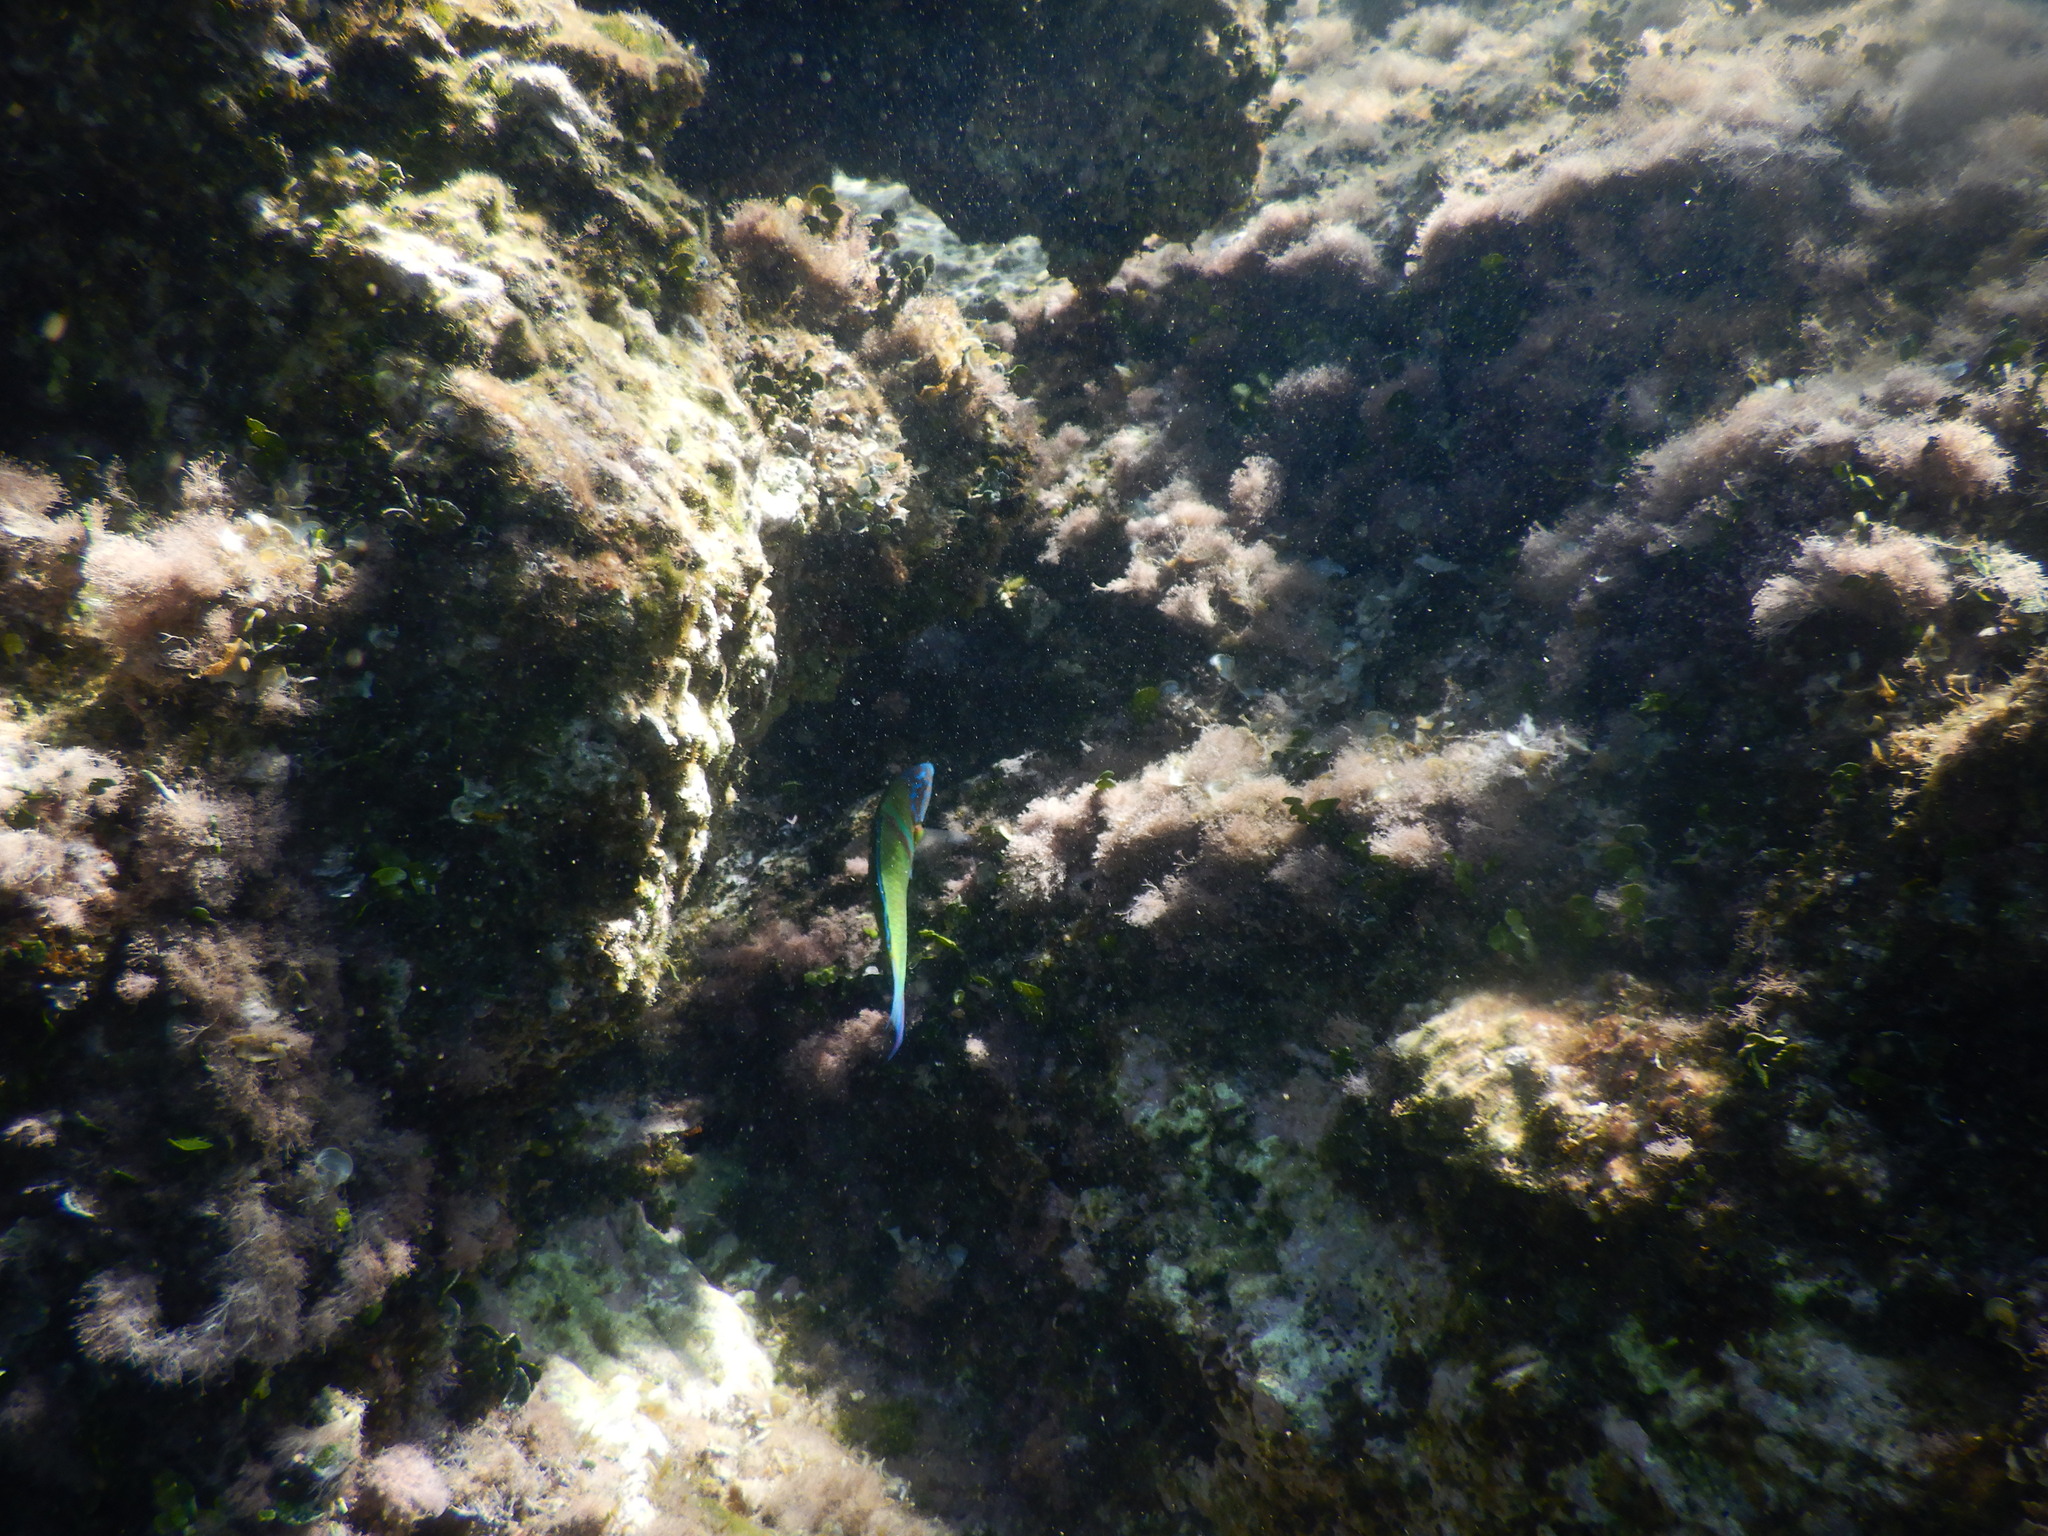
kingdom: Animalia
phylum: Chordata
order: Perciformes
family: Labridae
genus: Thalassoma
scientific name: Thalassoma pavo
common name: Ornate wrasse
